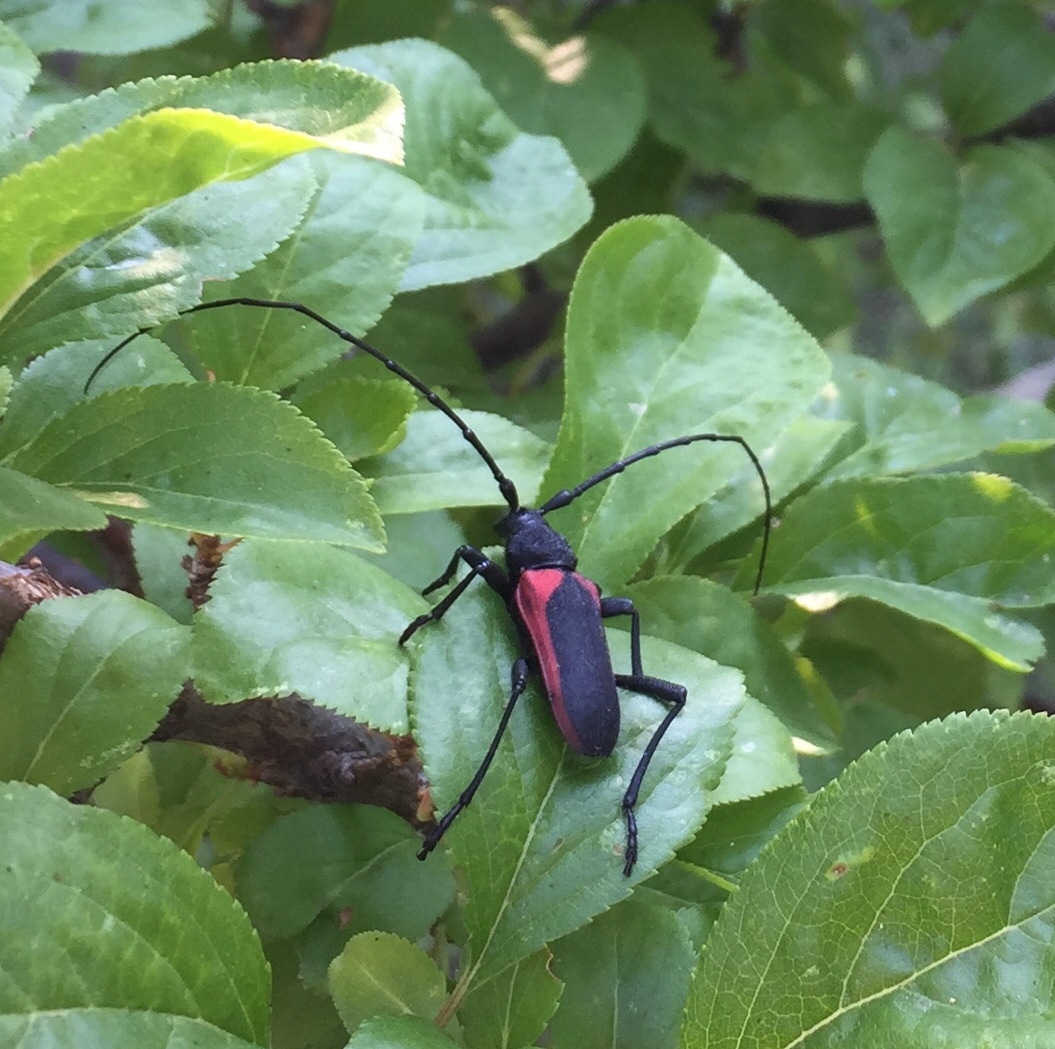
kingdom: Animalia
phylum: Arthropoda
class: Insecta
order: Coleoptera
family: Cerambycidae
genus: Purpuricenus
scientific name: Purpuricenus kaehleri
